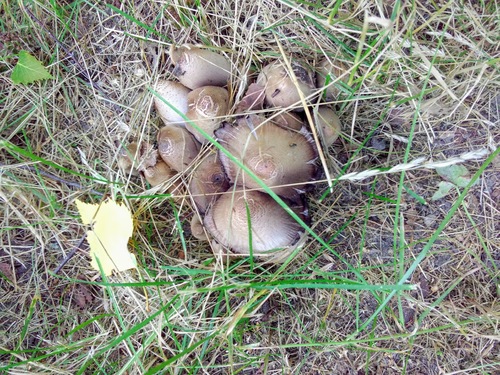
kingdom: Fungi
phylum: Basidiomycota
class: Agaricomycetes
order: Agaricales
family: Psathyrellaceae
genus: Coprinopsis
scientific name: Coprinopsis atramentaria
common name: Common ink-cap
